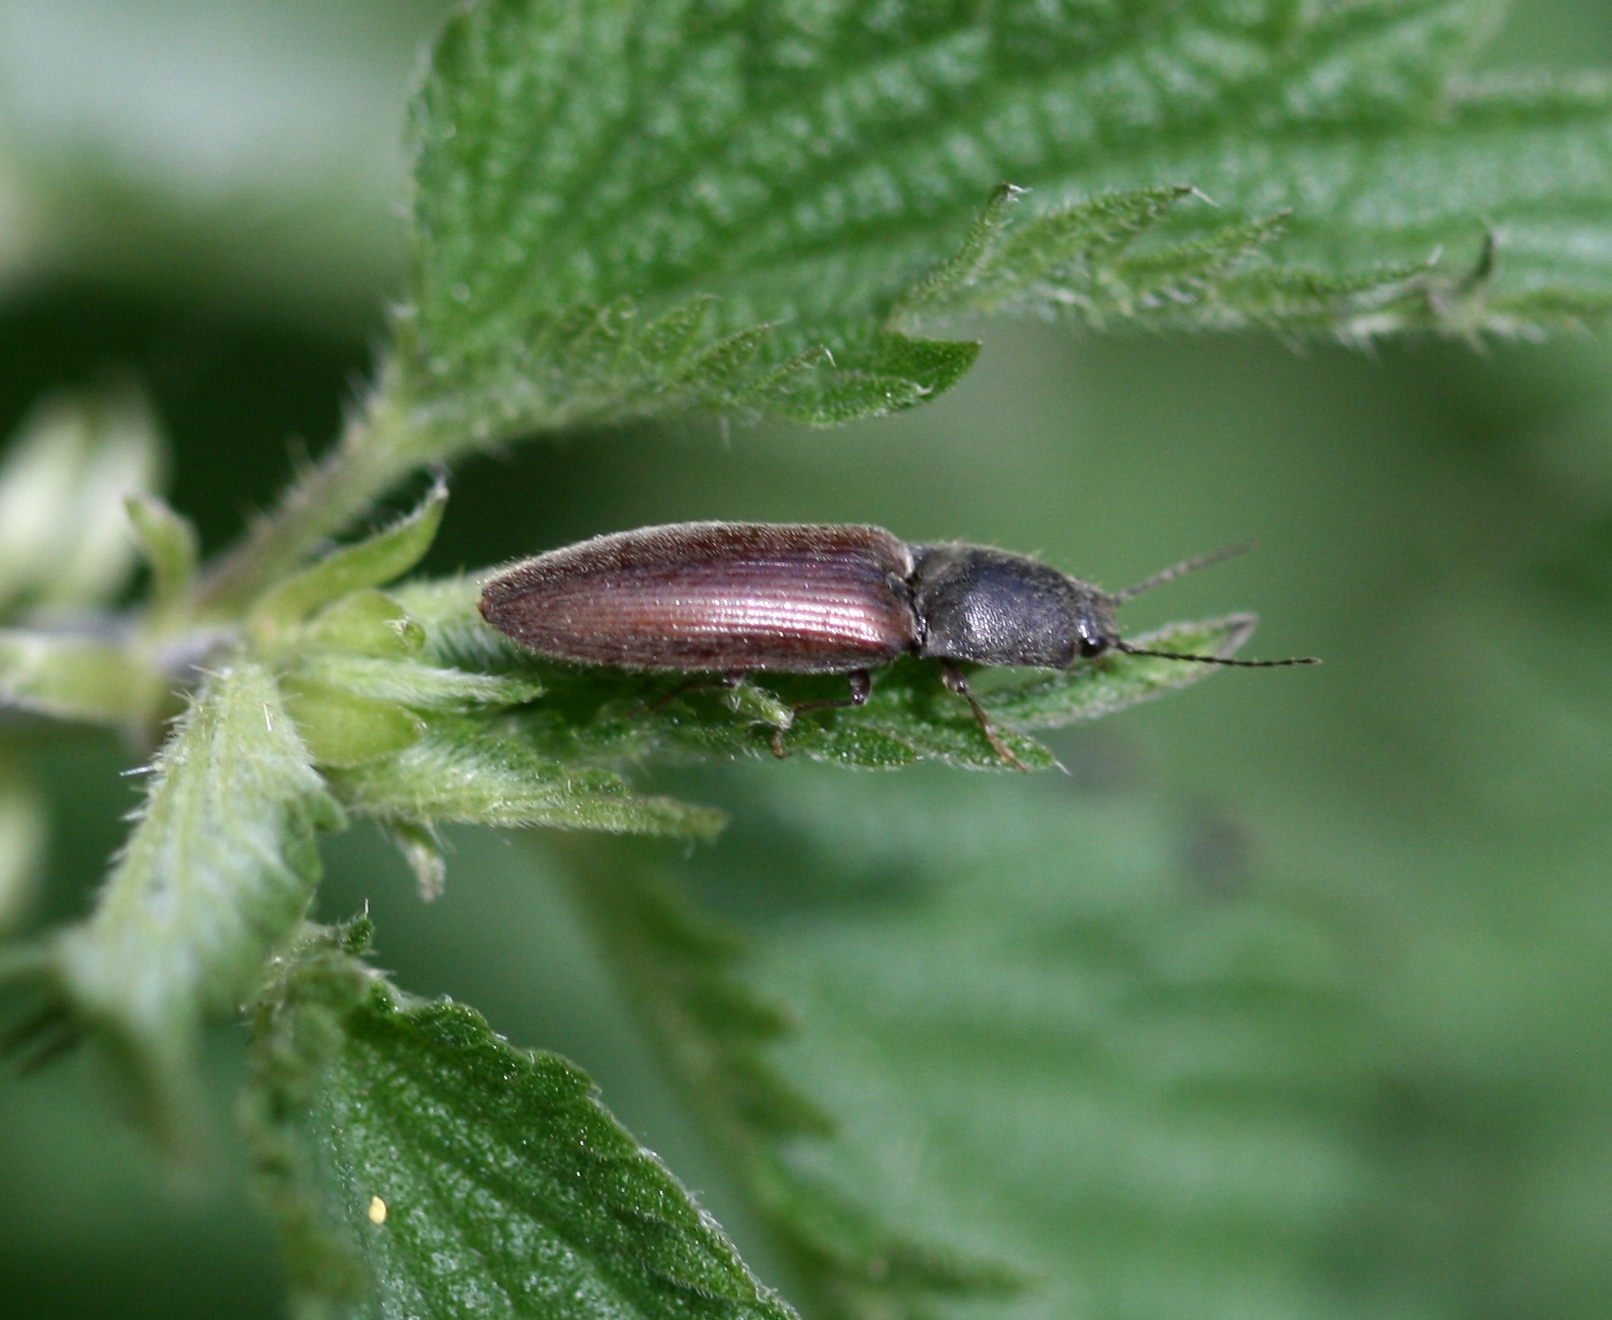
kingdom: Animalia
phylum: Arthropoda
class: Insecta
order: Coleoptera
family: Elateridae
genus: Athous
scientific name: Athous haemorrhoidalis
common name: Red-brown click beetle
